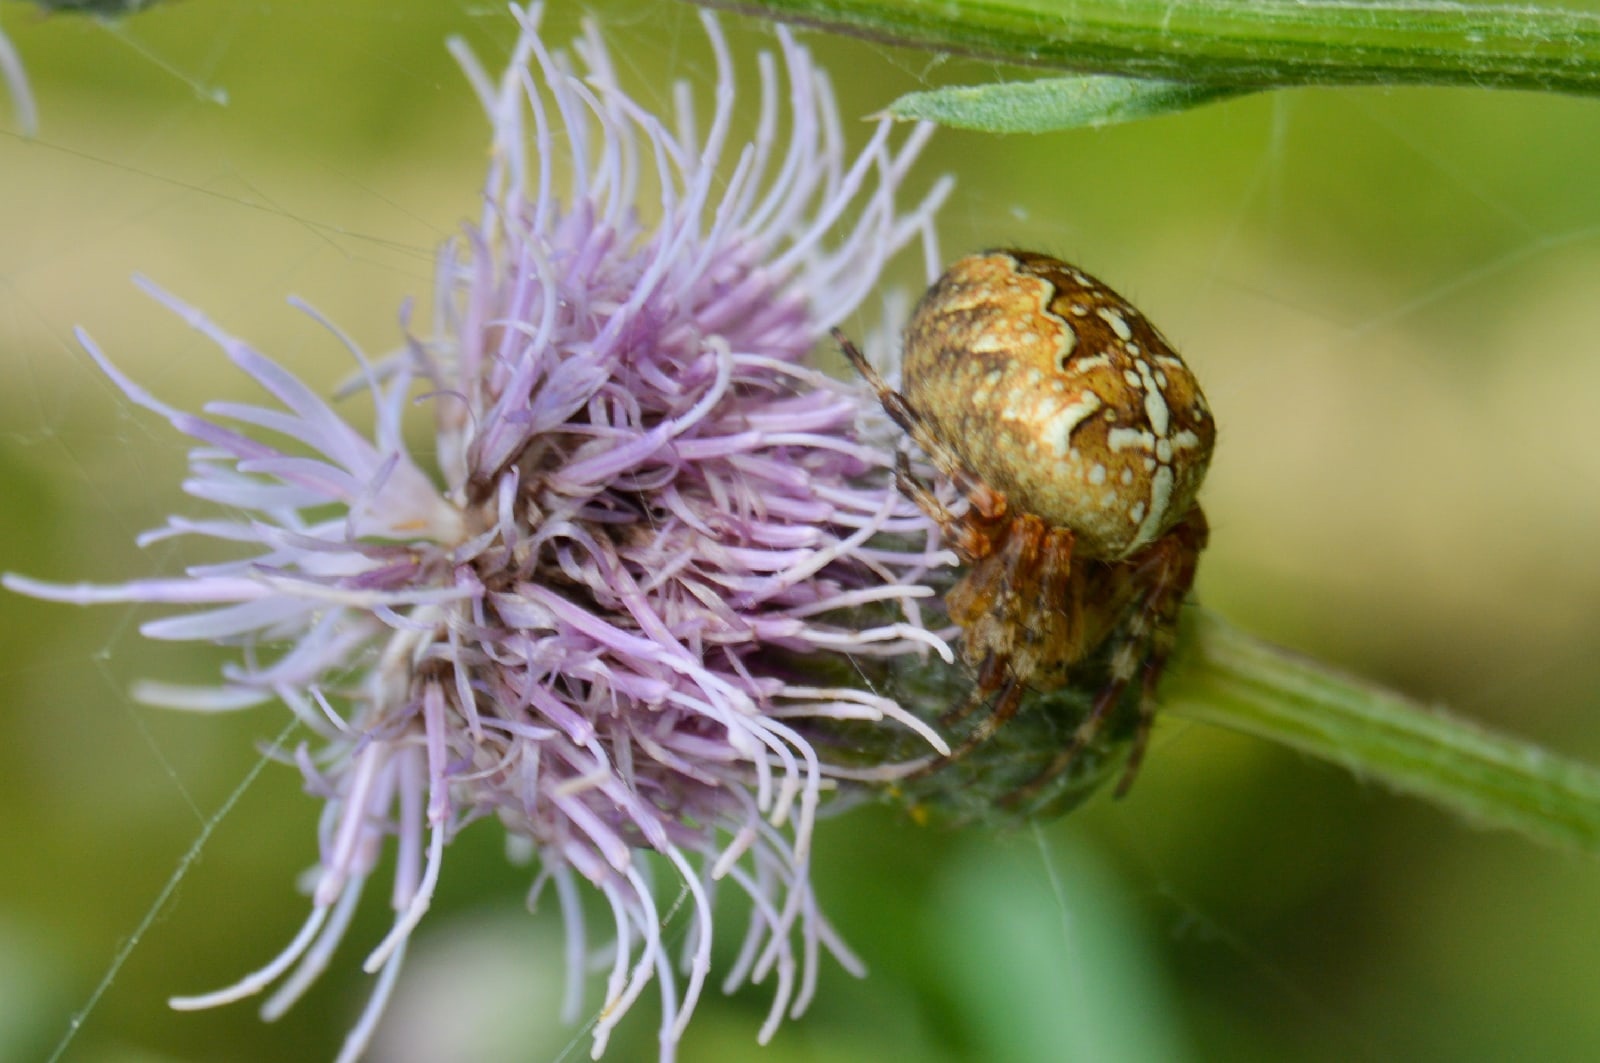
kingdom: Animalia
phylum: Arthropoda
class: Arachnida
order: Araneae
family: Araneidae
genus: Araneus
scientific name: Araneus diadematus
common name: Cross orbweaver
